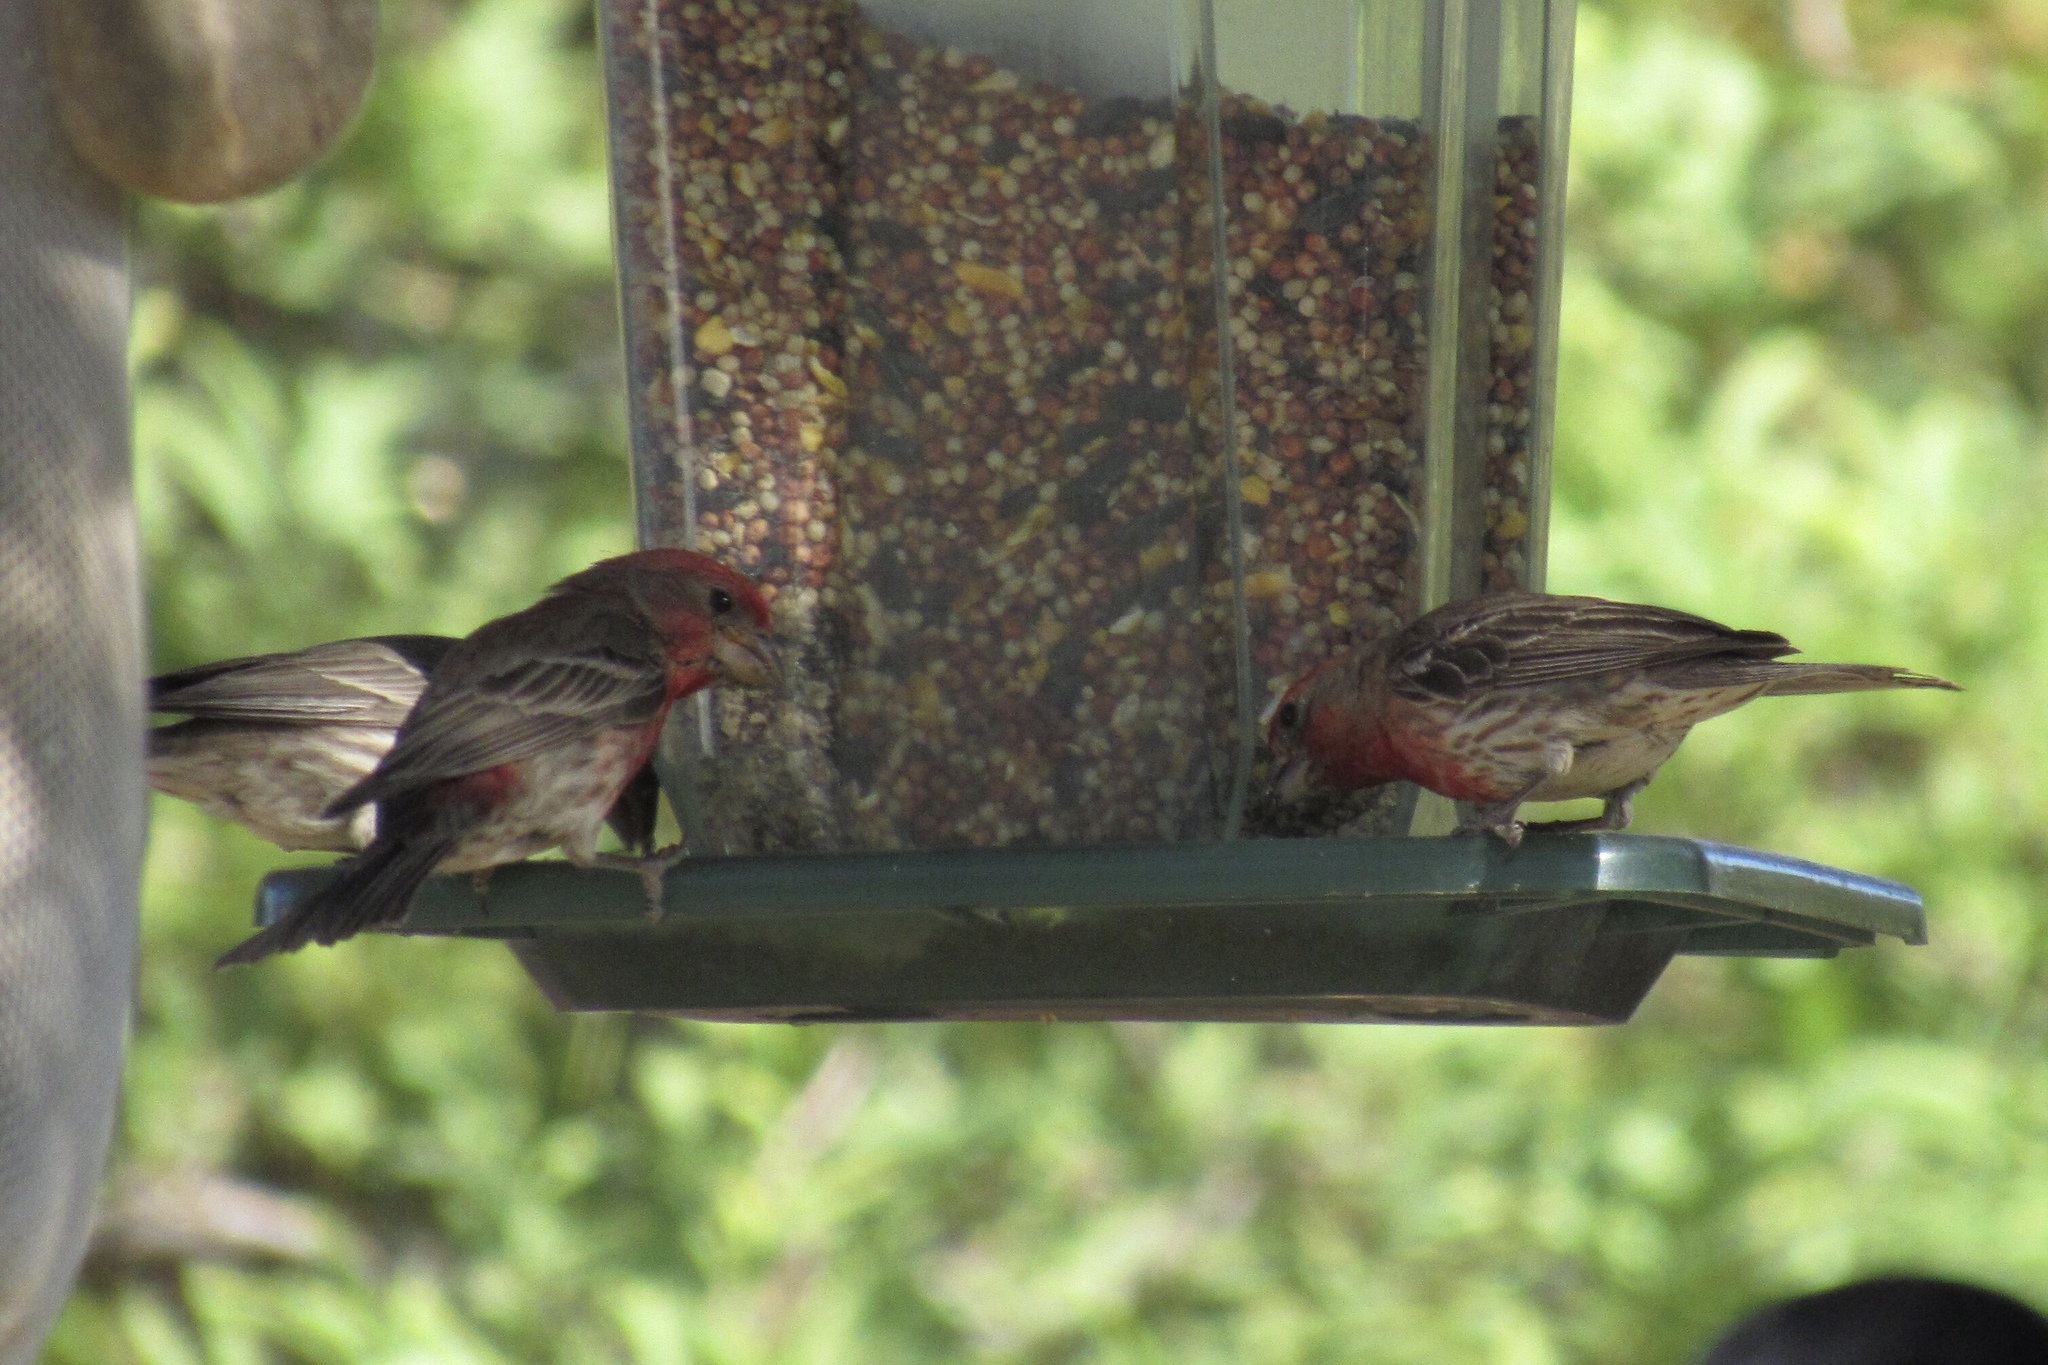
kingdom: Animalia
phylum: Chordata
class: Aves
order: Passeriformes
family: Fringillidae
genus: Haemorhous
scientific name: Haemorhous mexicanus
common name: House finch
